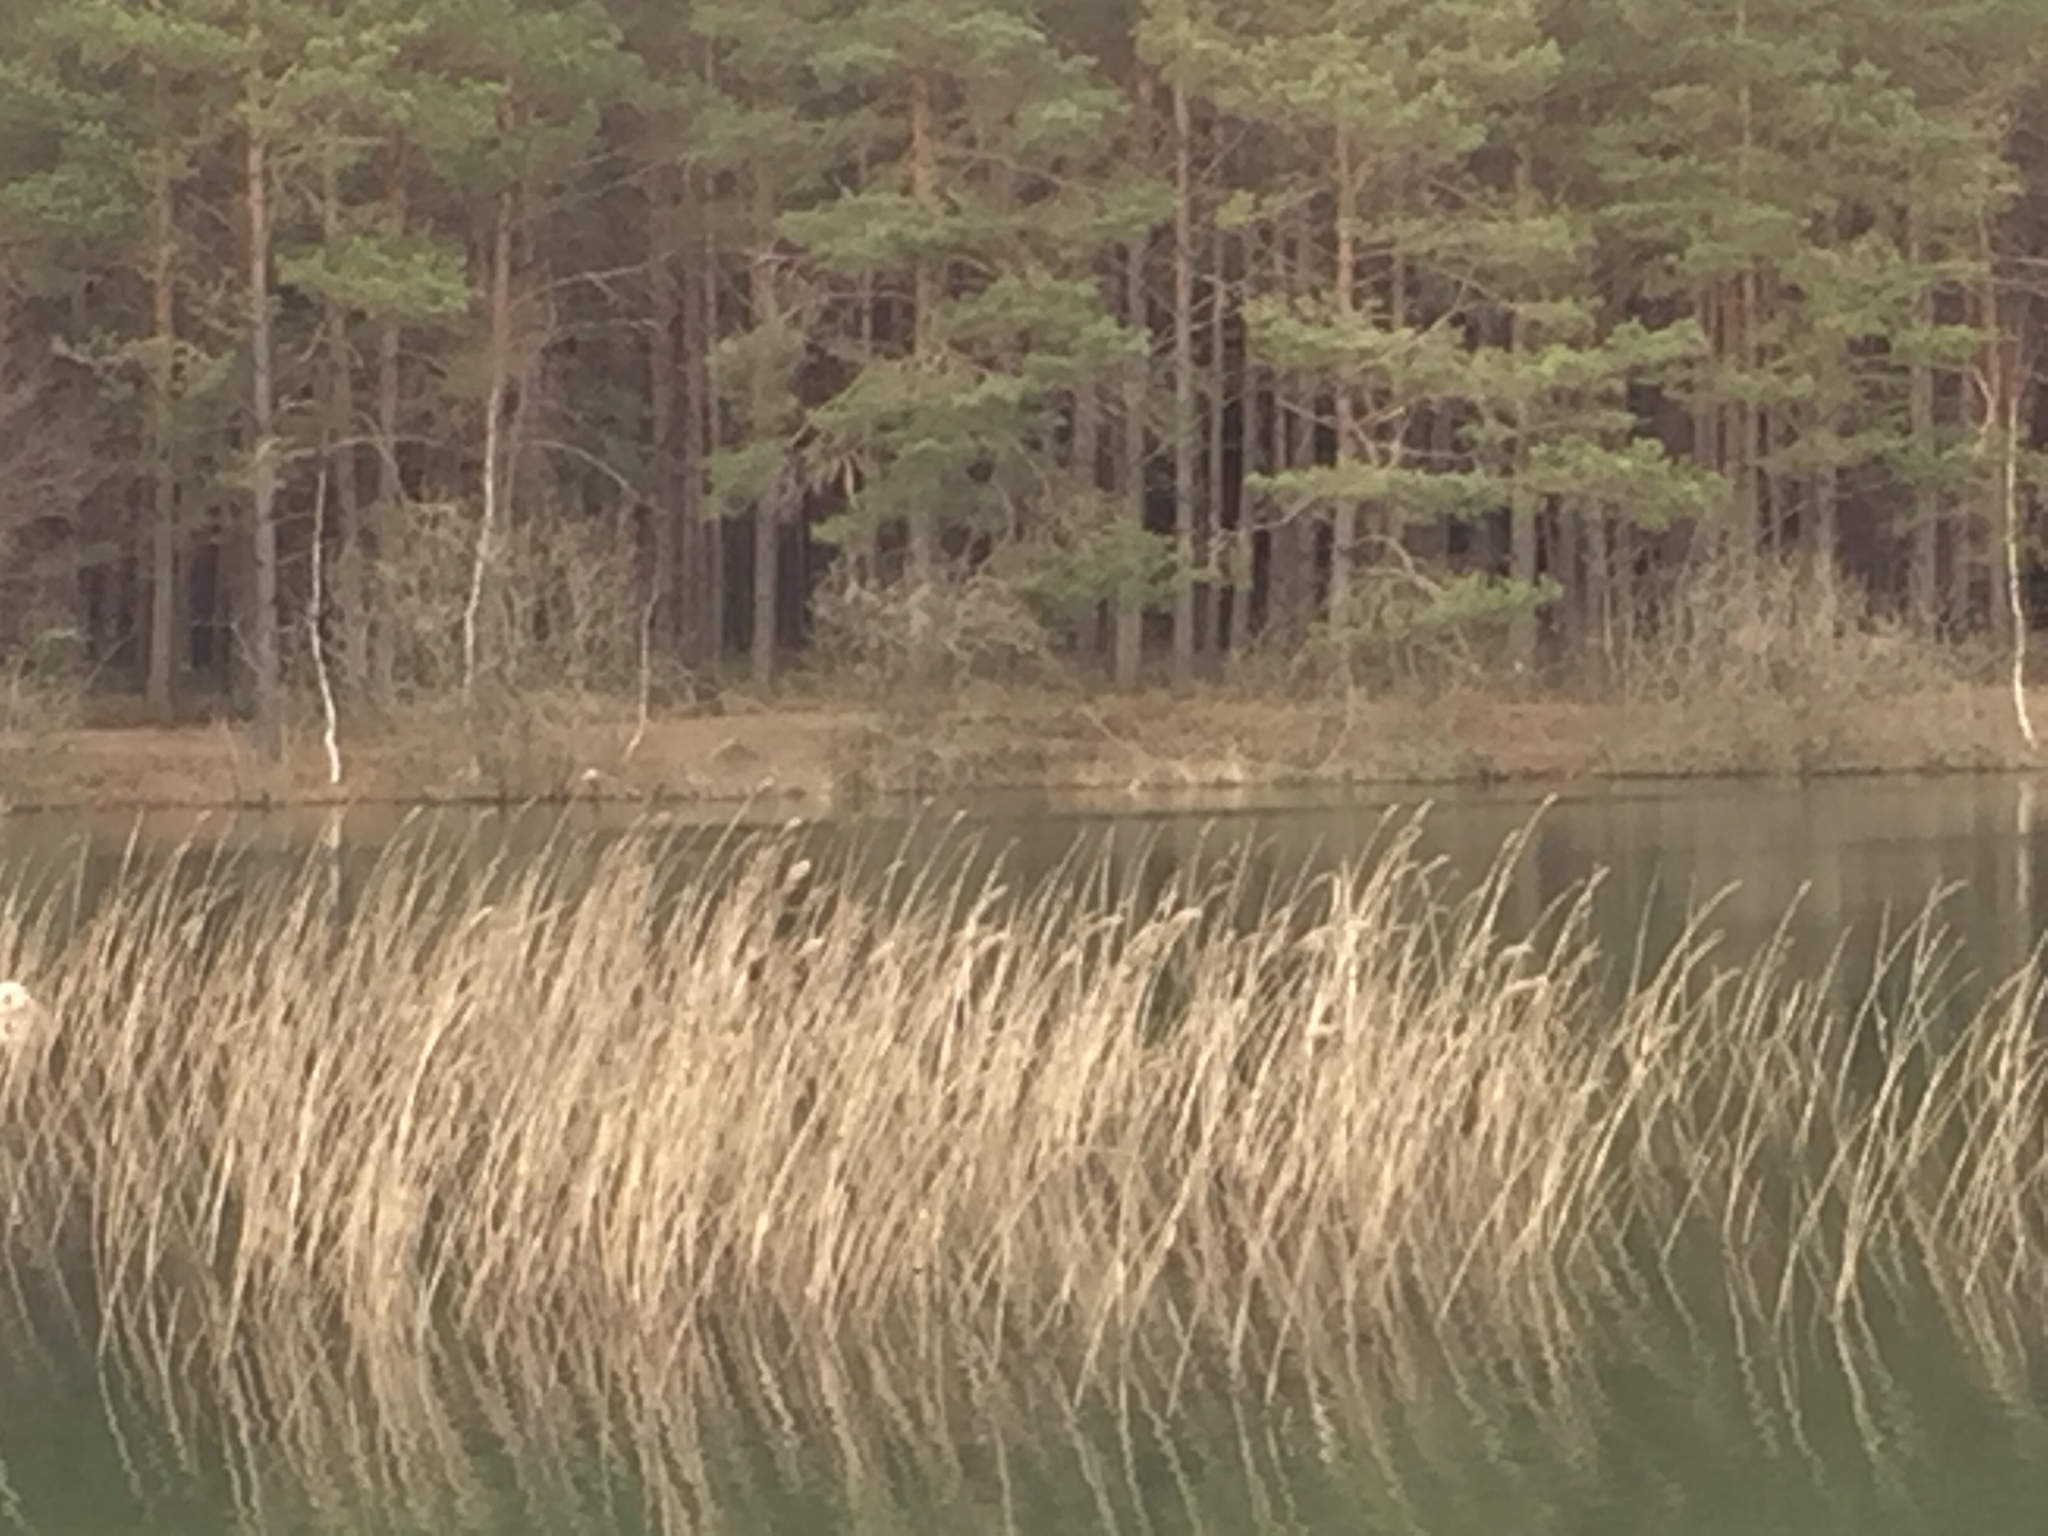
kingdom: Plantae
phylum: Tracheophyta
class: Liliopsida
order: Poales
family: Poaceae
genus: Phragmites
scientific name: Phragmites australis
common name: Common reed
